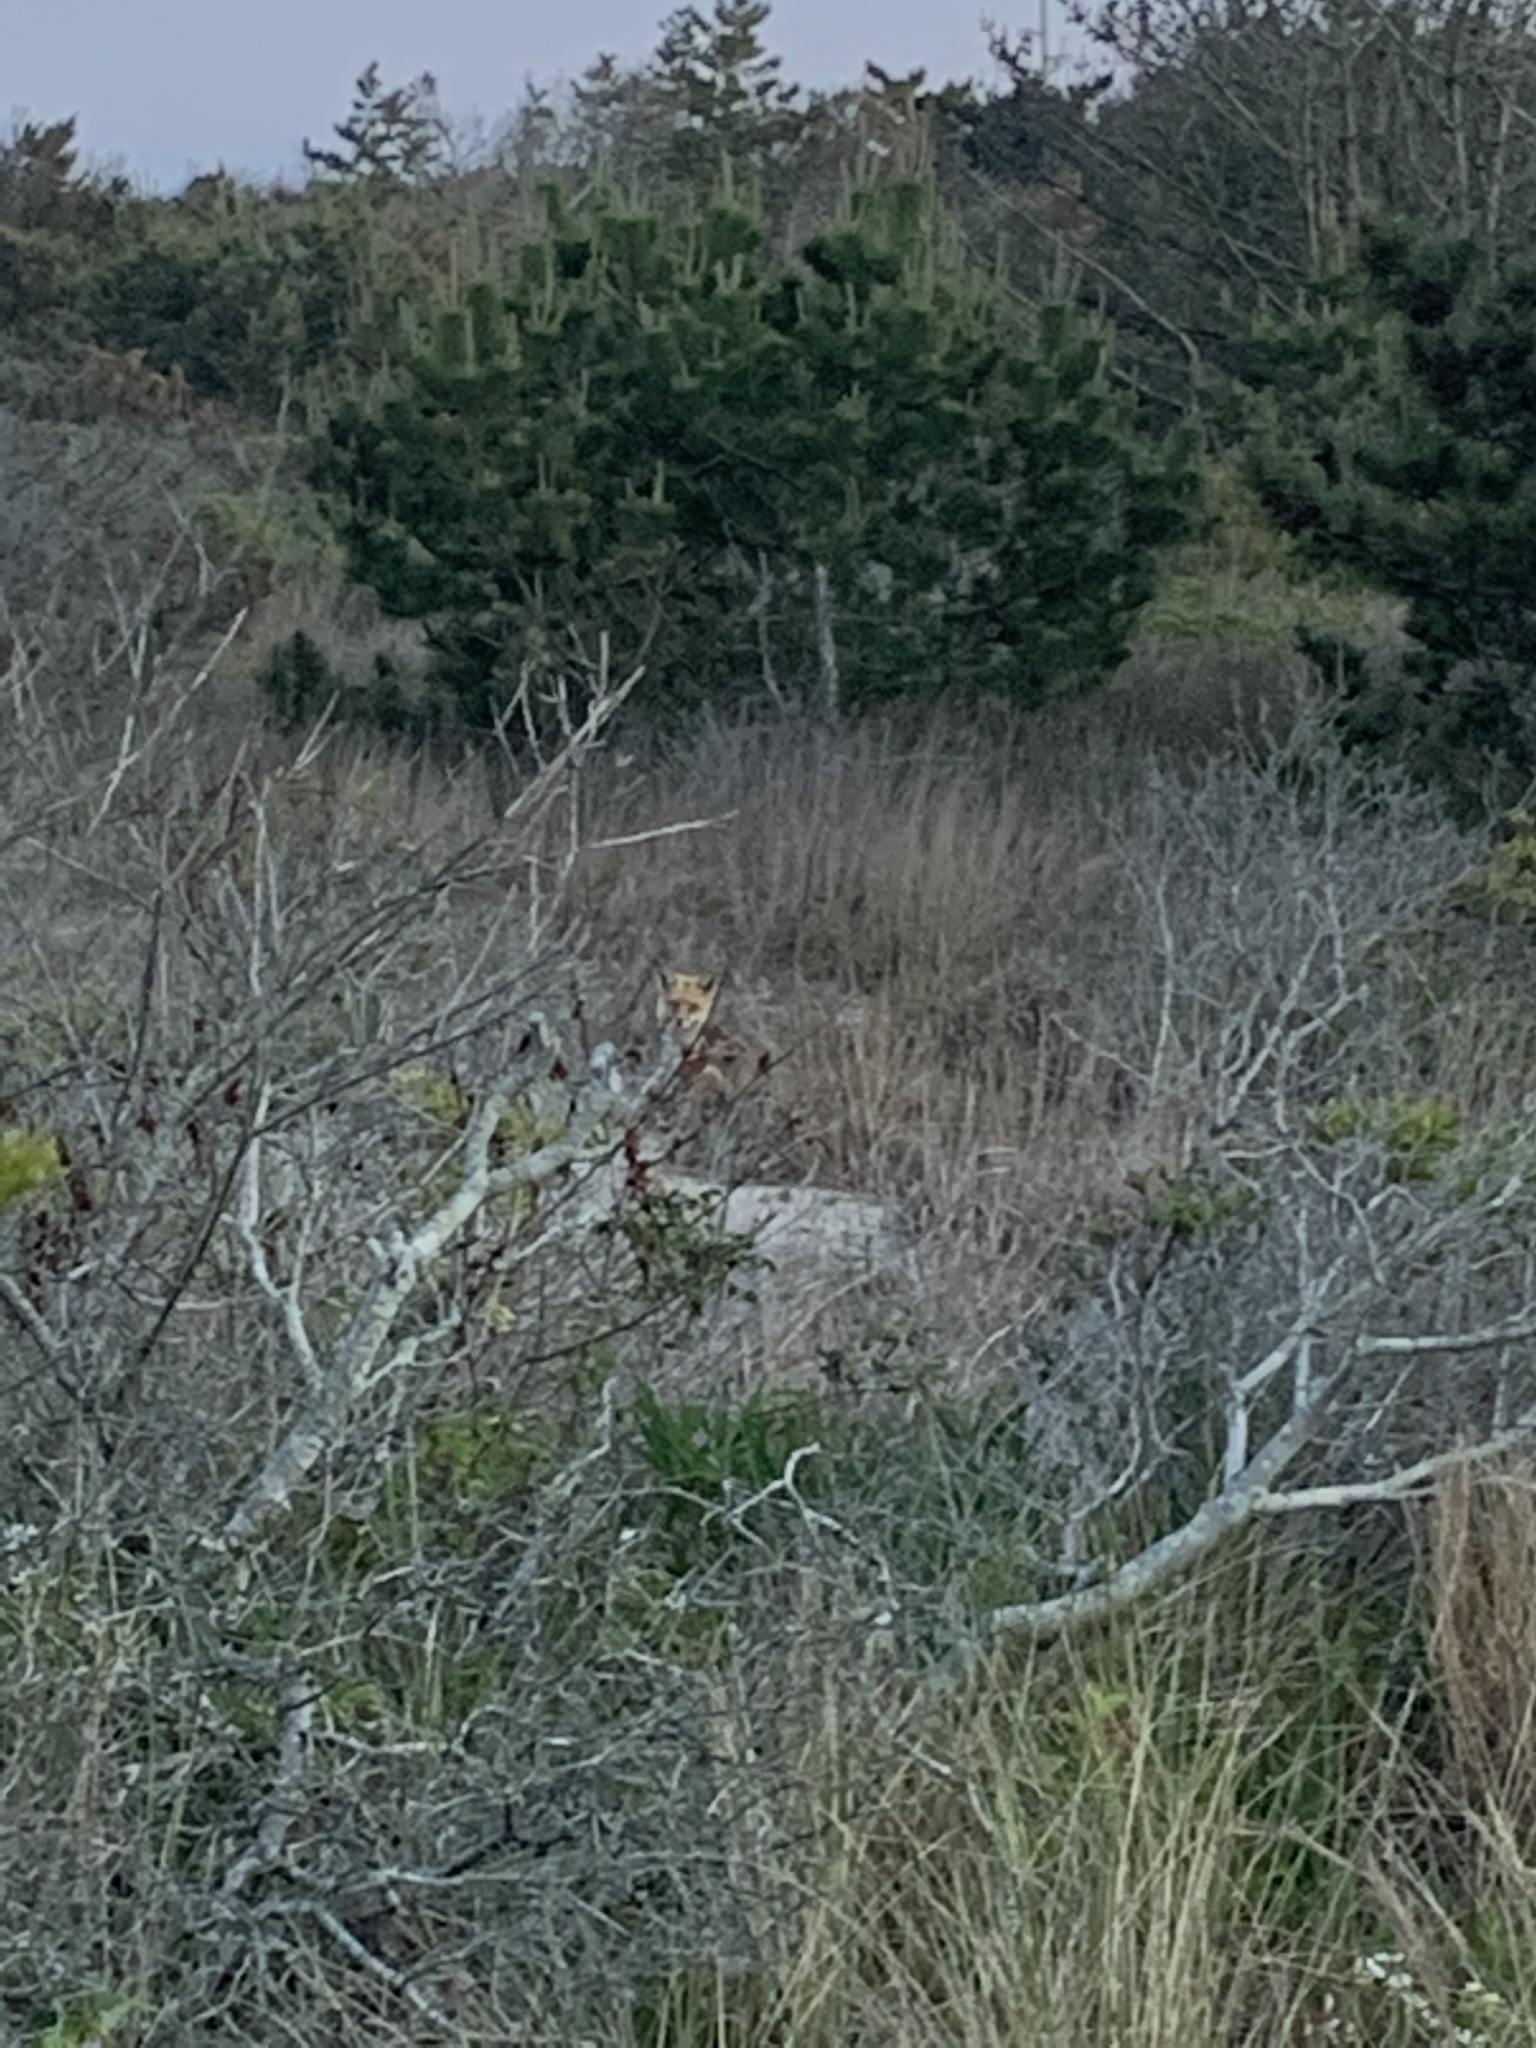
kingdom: Animalia
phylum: Chordata
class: Mammalia
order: Carnivora
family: Canidae
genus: Vulpes
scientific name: Vulpes vulpes
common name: Red fox
